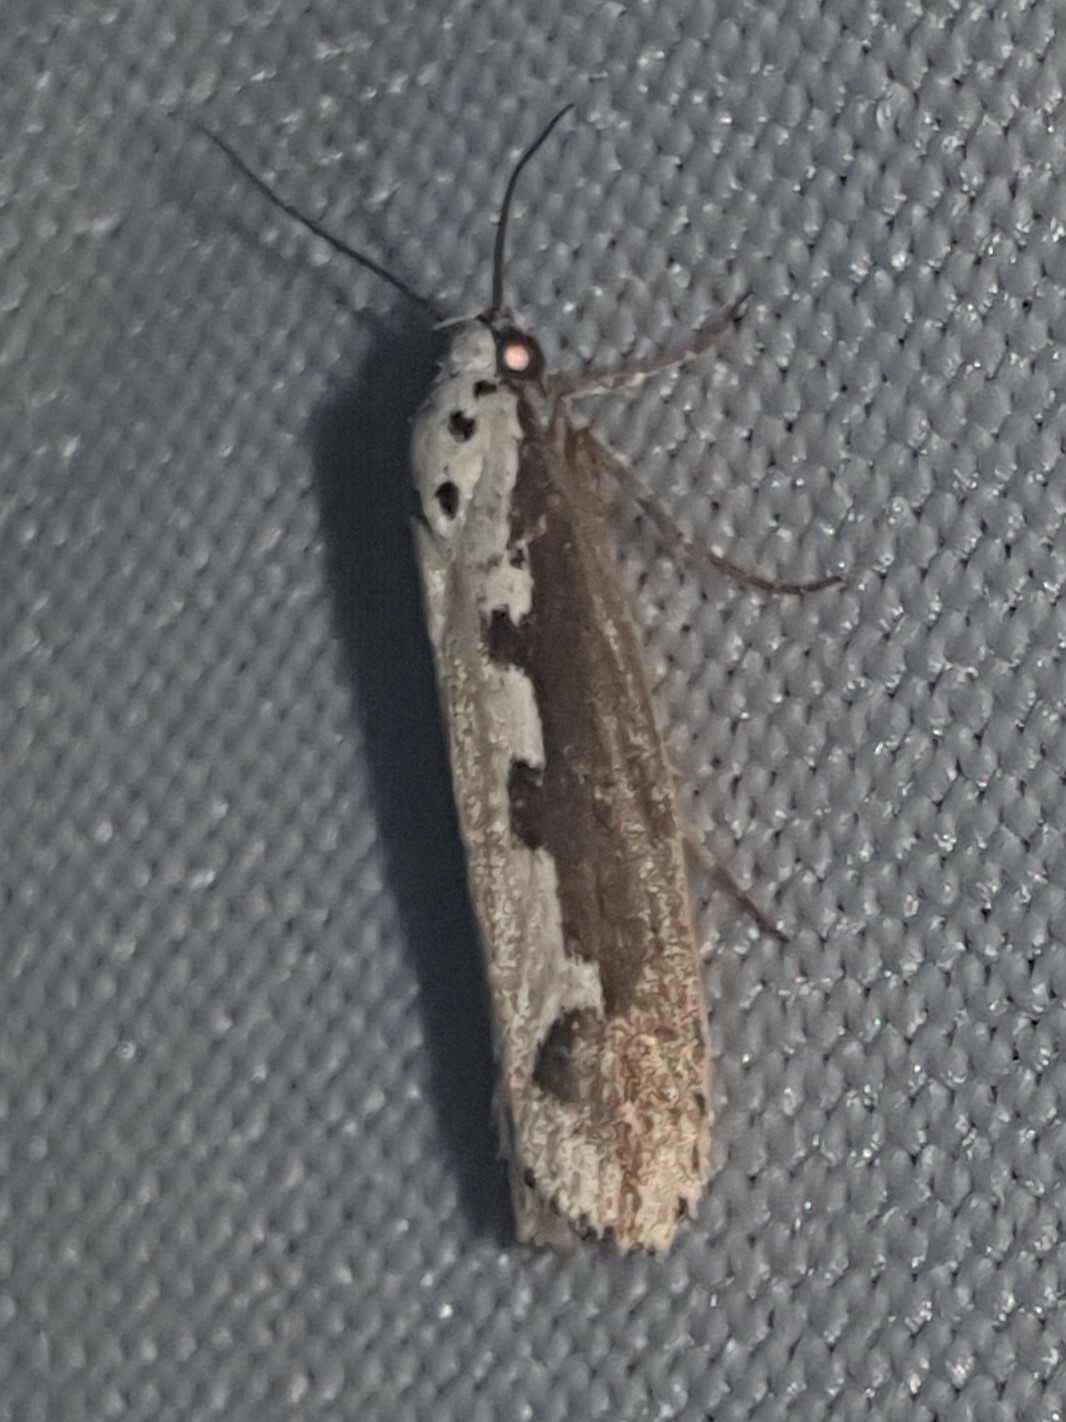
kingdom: Animalia
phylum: Arthropoda
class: Insecta
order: Lepidoptera
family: Ethmiidae
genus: Ethmia
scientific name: Ethmia bipunctella
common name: Bordered ermel
